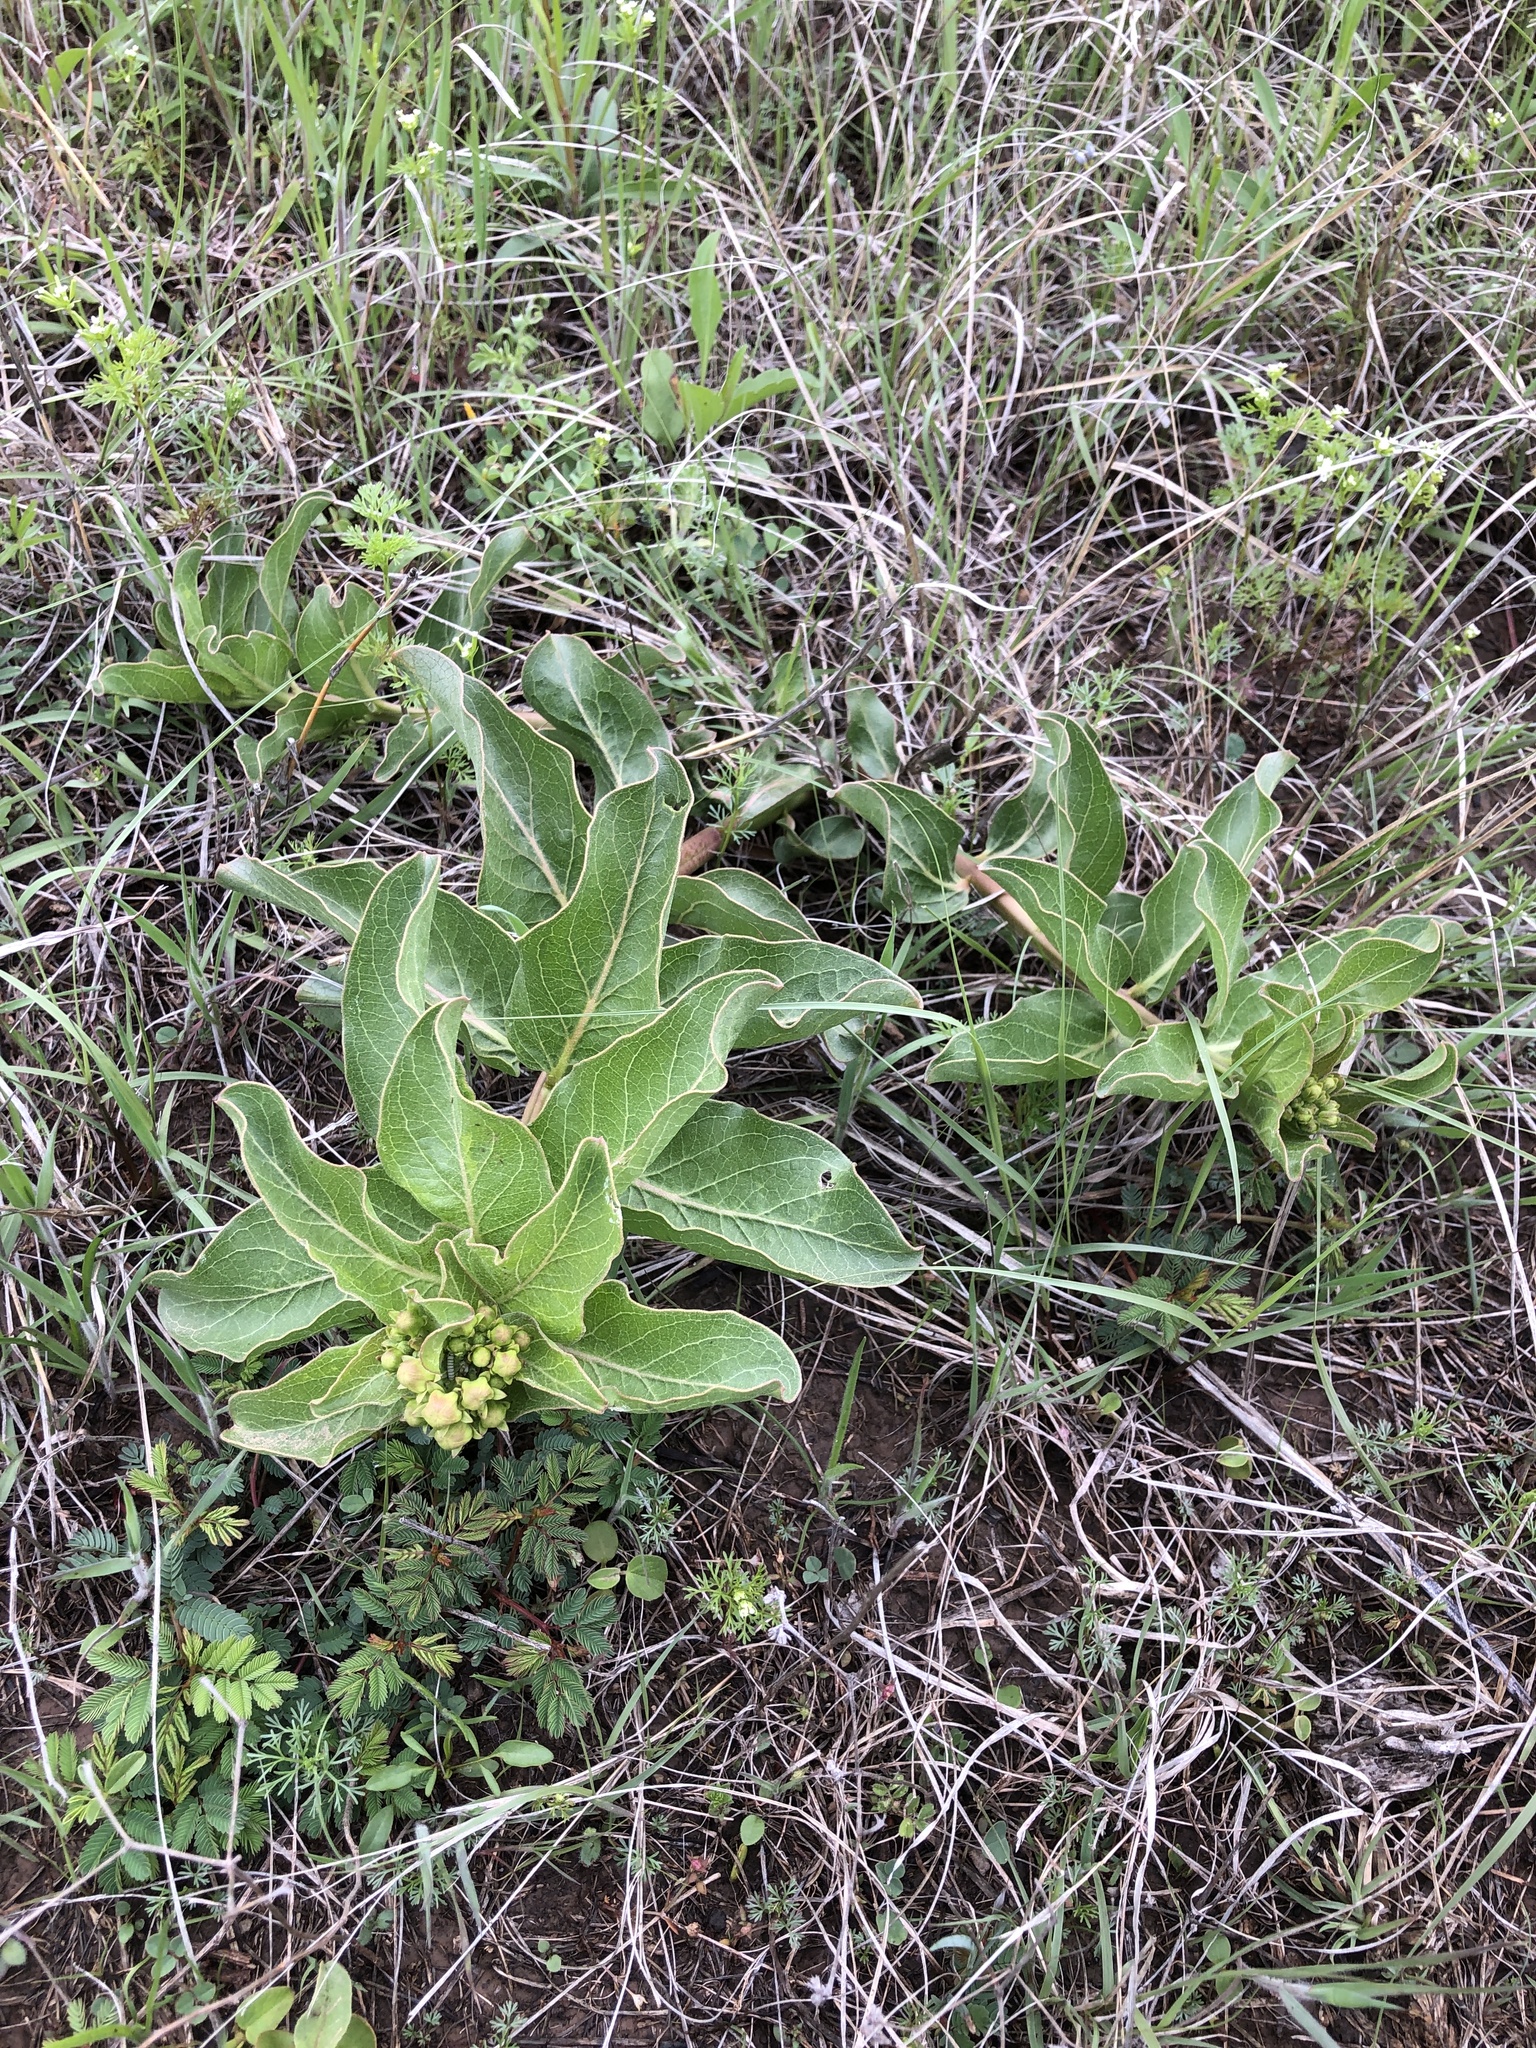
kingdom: Plantae
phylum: Tracheophyta
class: Magnoliopsida
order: Gentianales
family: Apocynaceae
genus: Asclepias
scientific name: Asclepias viridis
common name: Antelope-horns
